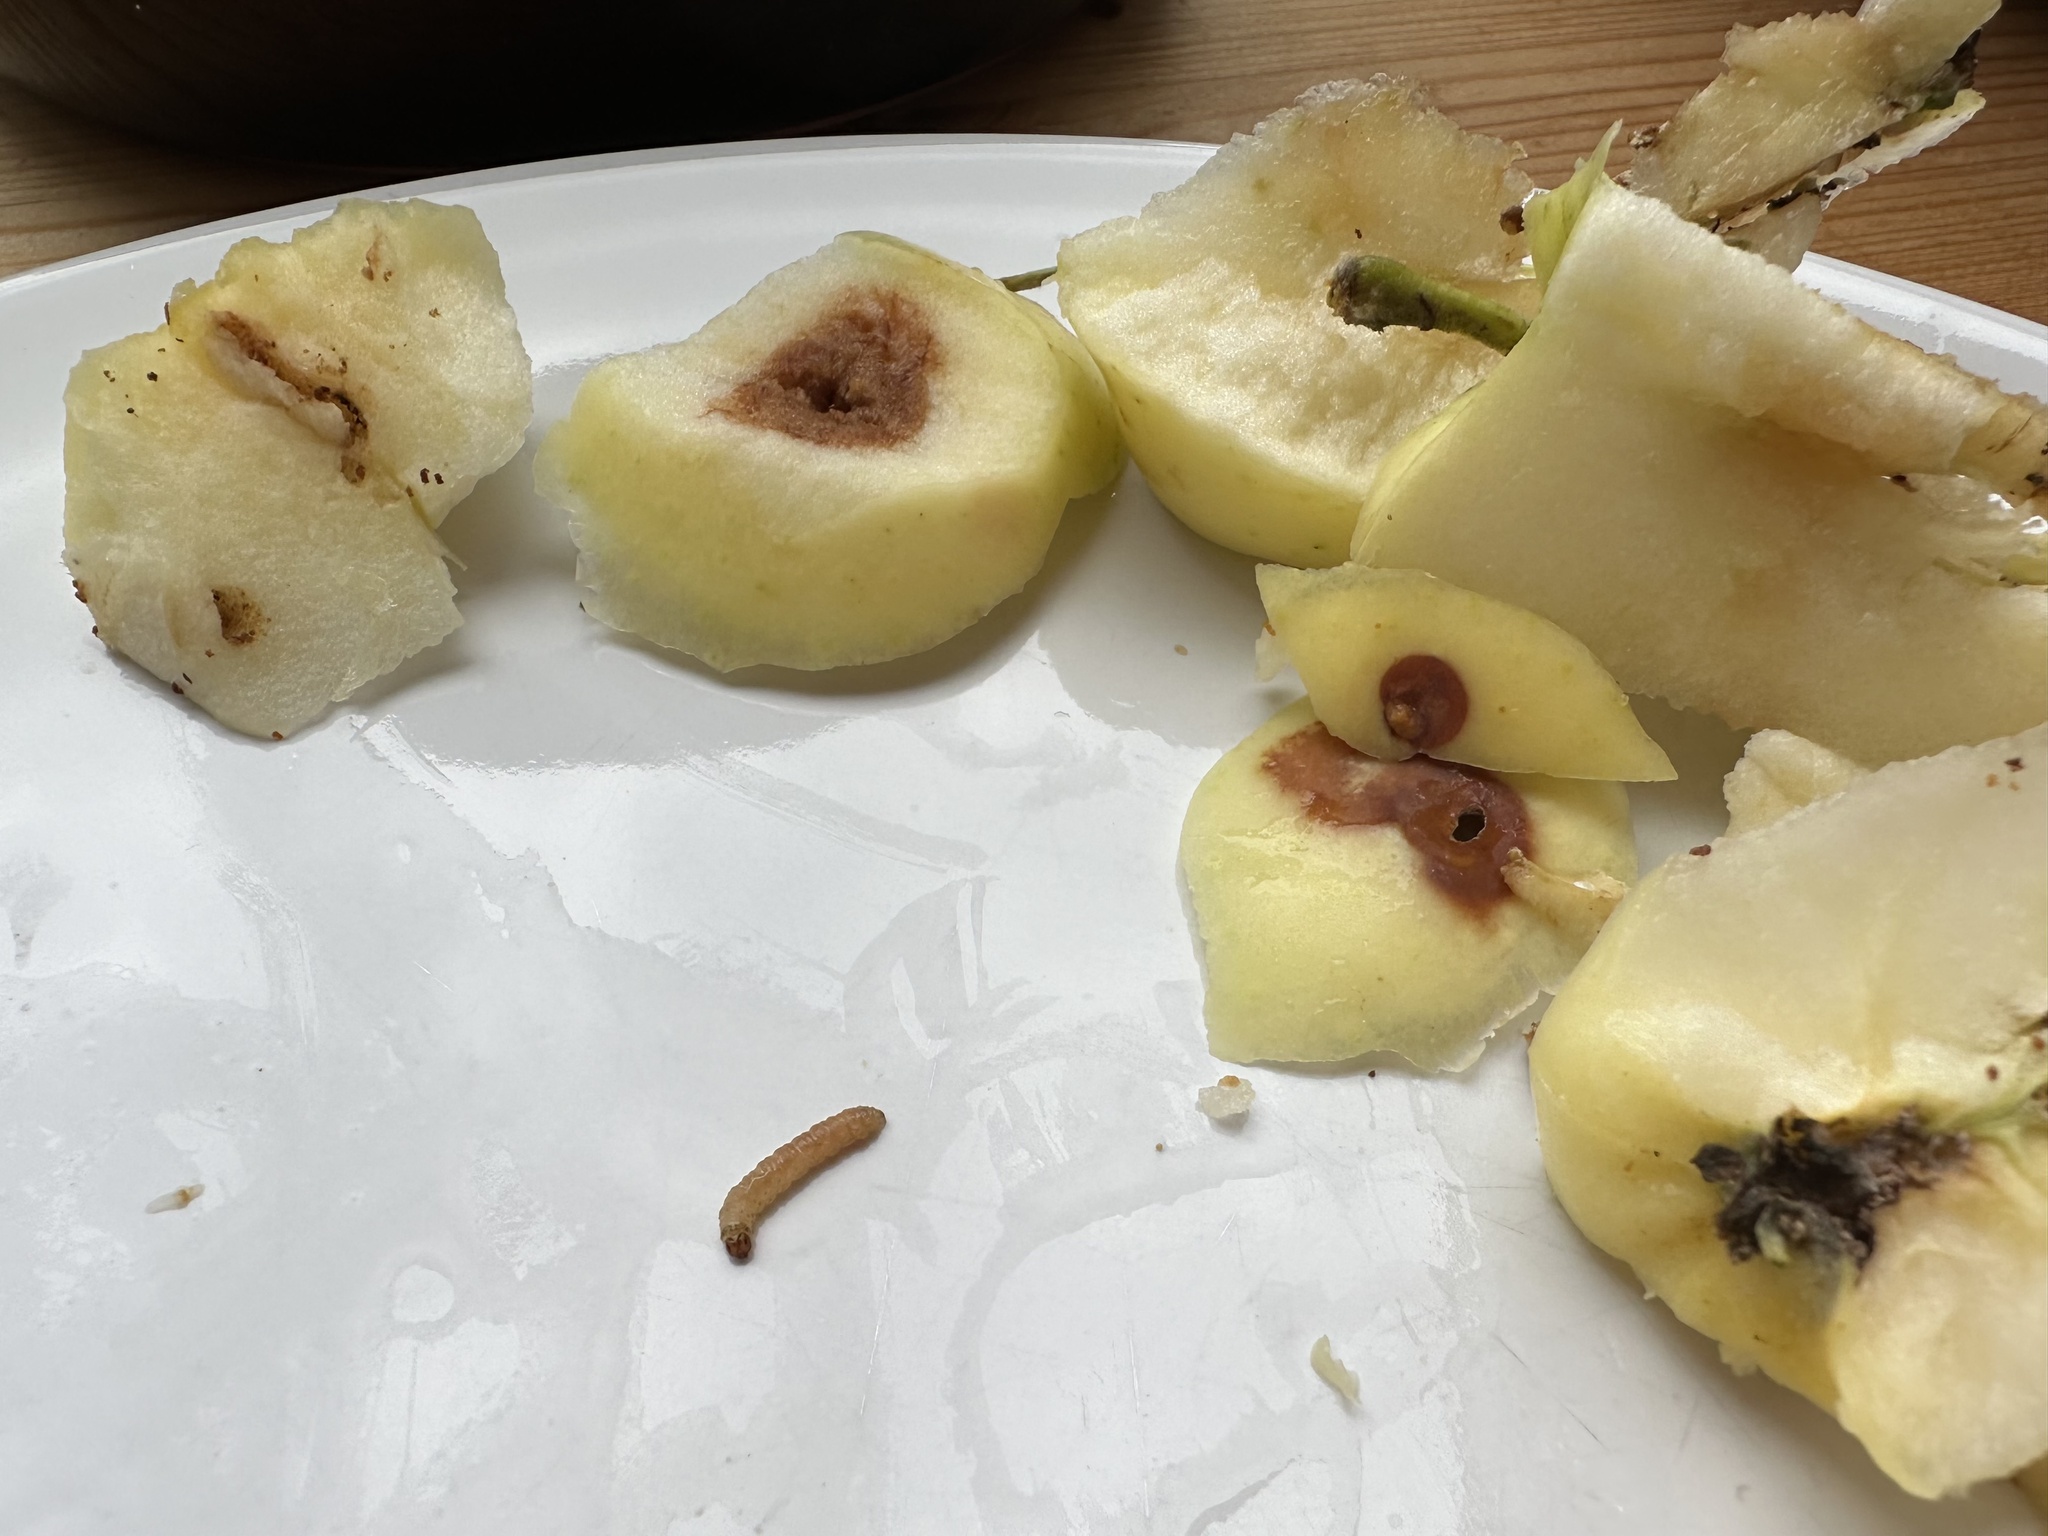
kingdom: Animalia
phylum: Arthropoda
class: Insecta
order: Lepidoptera
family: Tortricidae
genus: Cydia
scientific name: Cydia pomonella
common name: Codling moth
